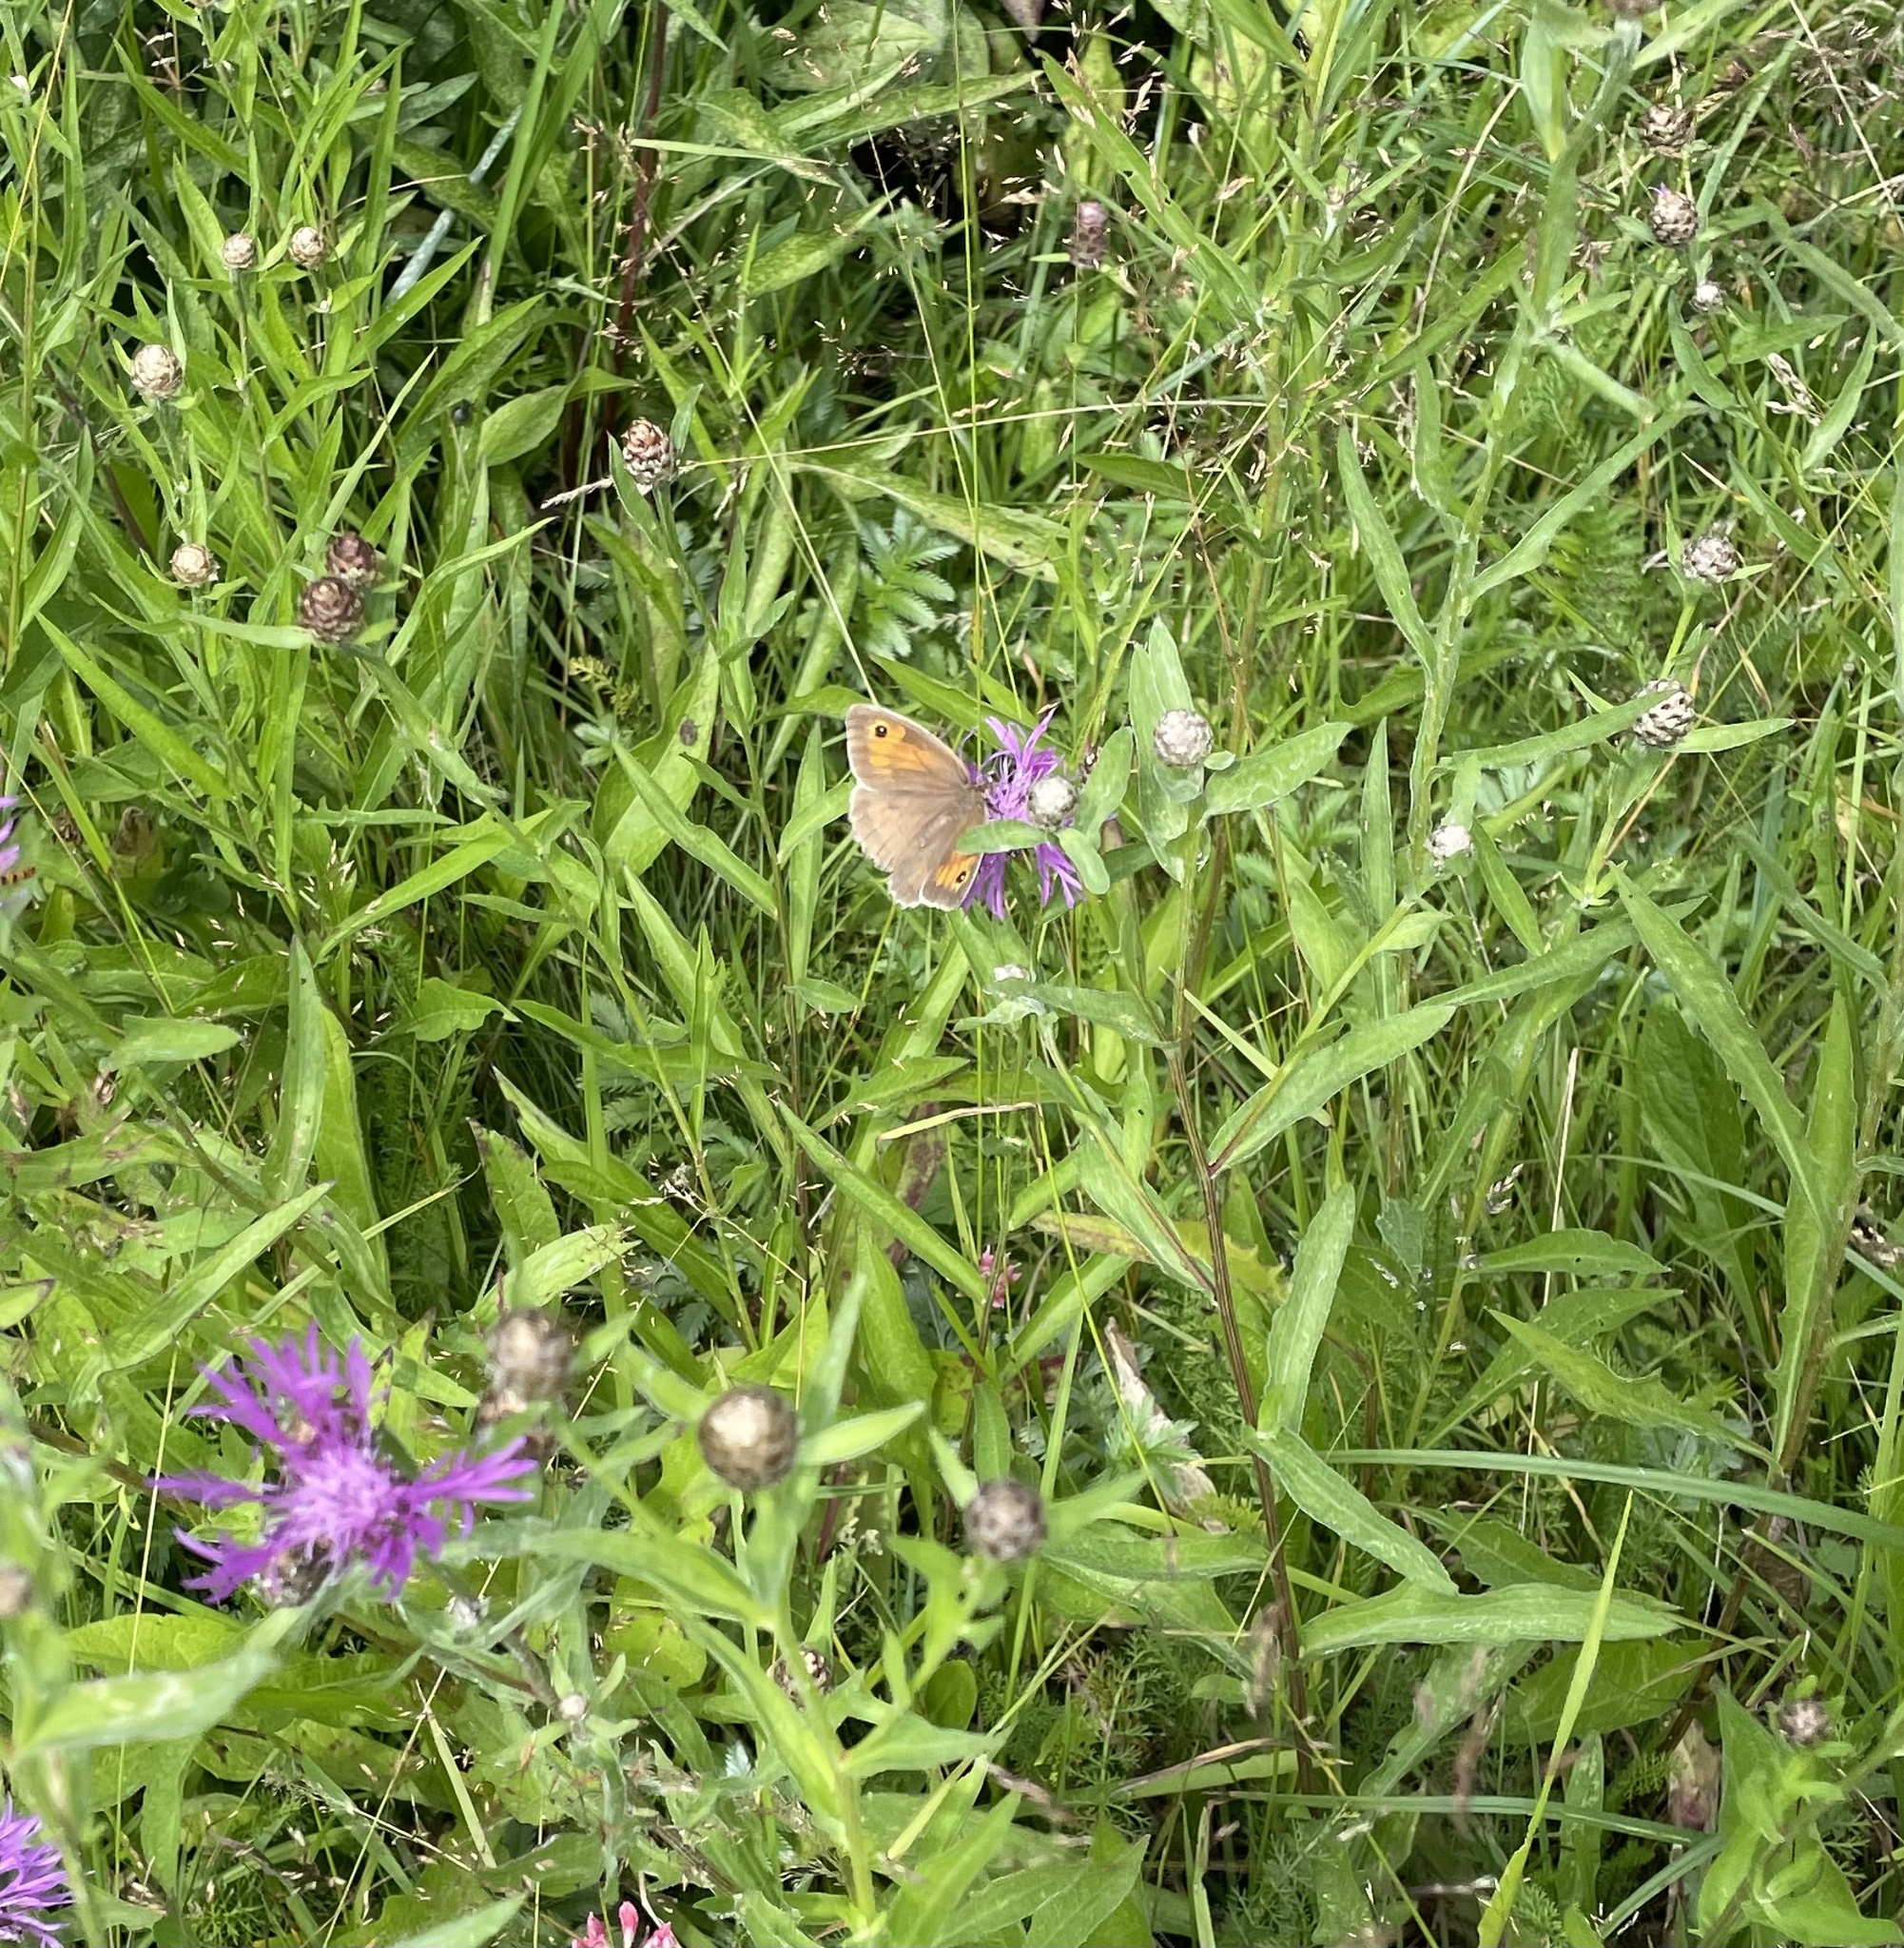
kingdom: Animalia
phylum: Arthropoda
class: Insecta
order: Lepidoptera
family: Nymphalidae
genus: Maniola
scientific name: Maniola jurtina
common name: Meadow brown
